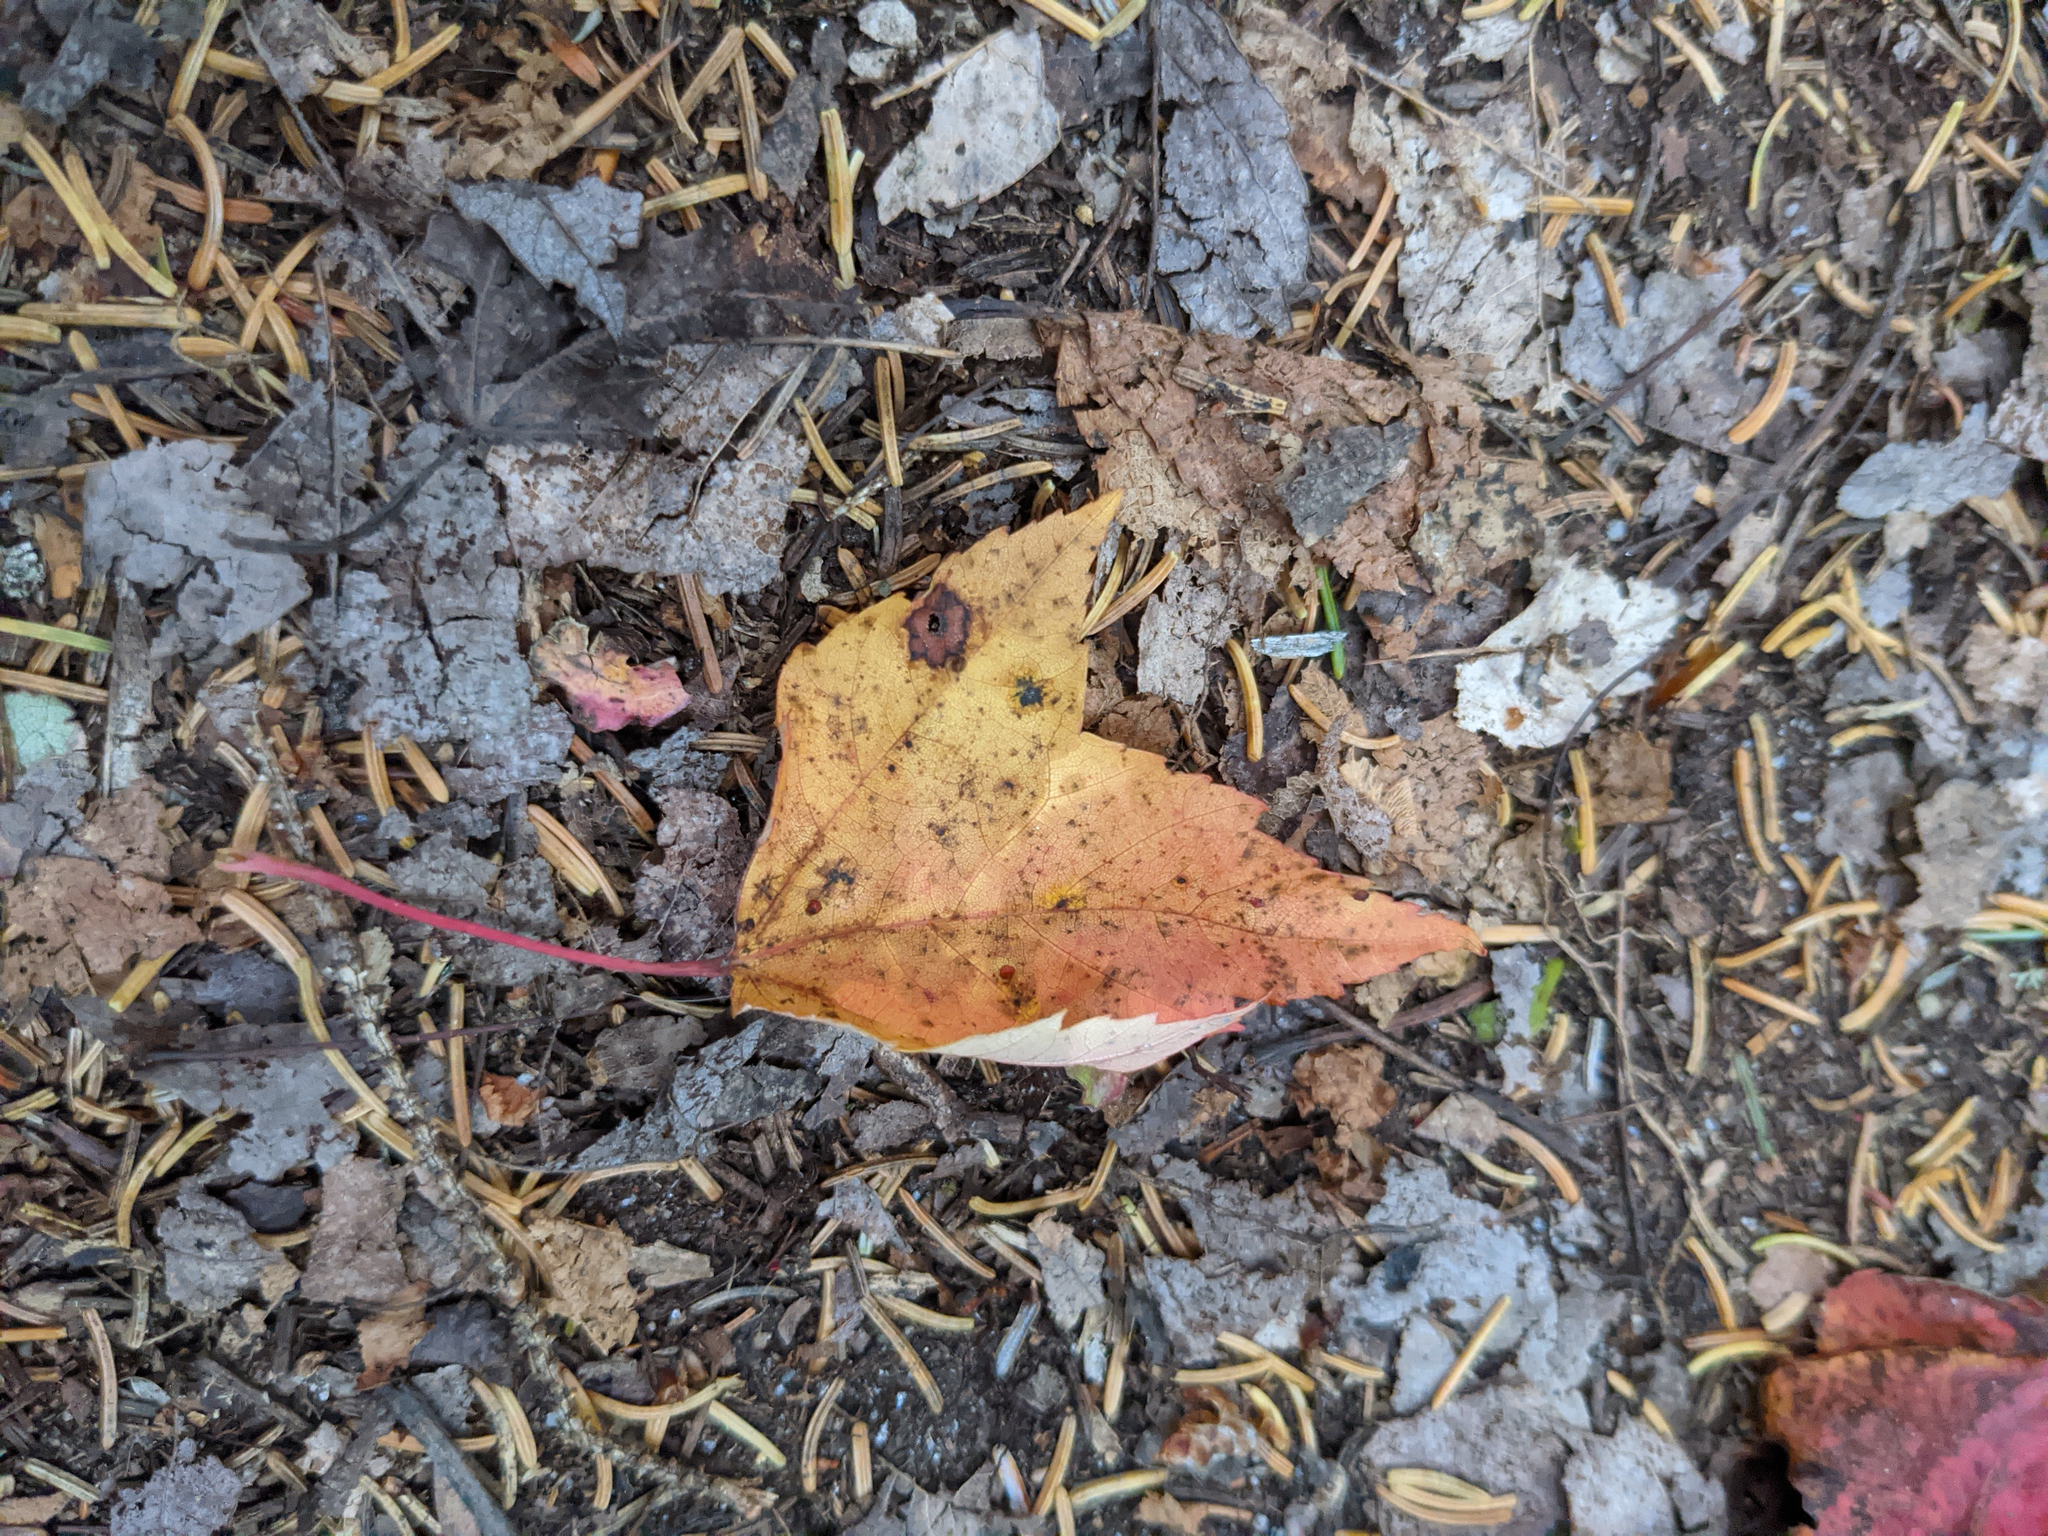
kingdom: Plantae
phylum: Tracheophyta
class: Magnoliopsida
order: Sapindales
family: Sapindaceae
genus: Acer
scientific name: Acer rubrum
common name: Red maple
